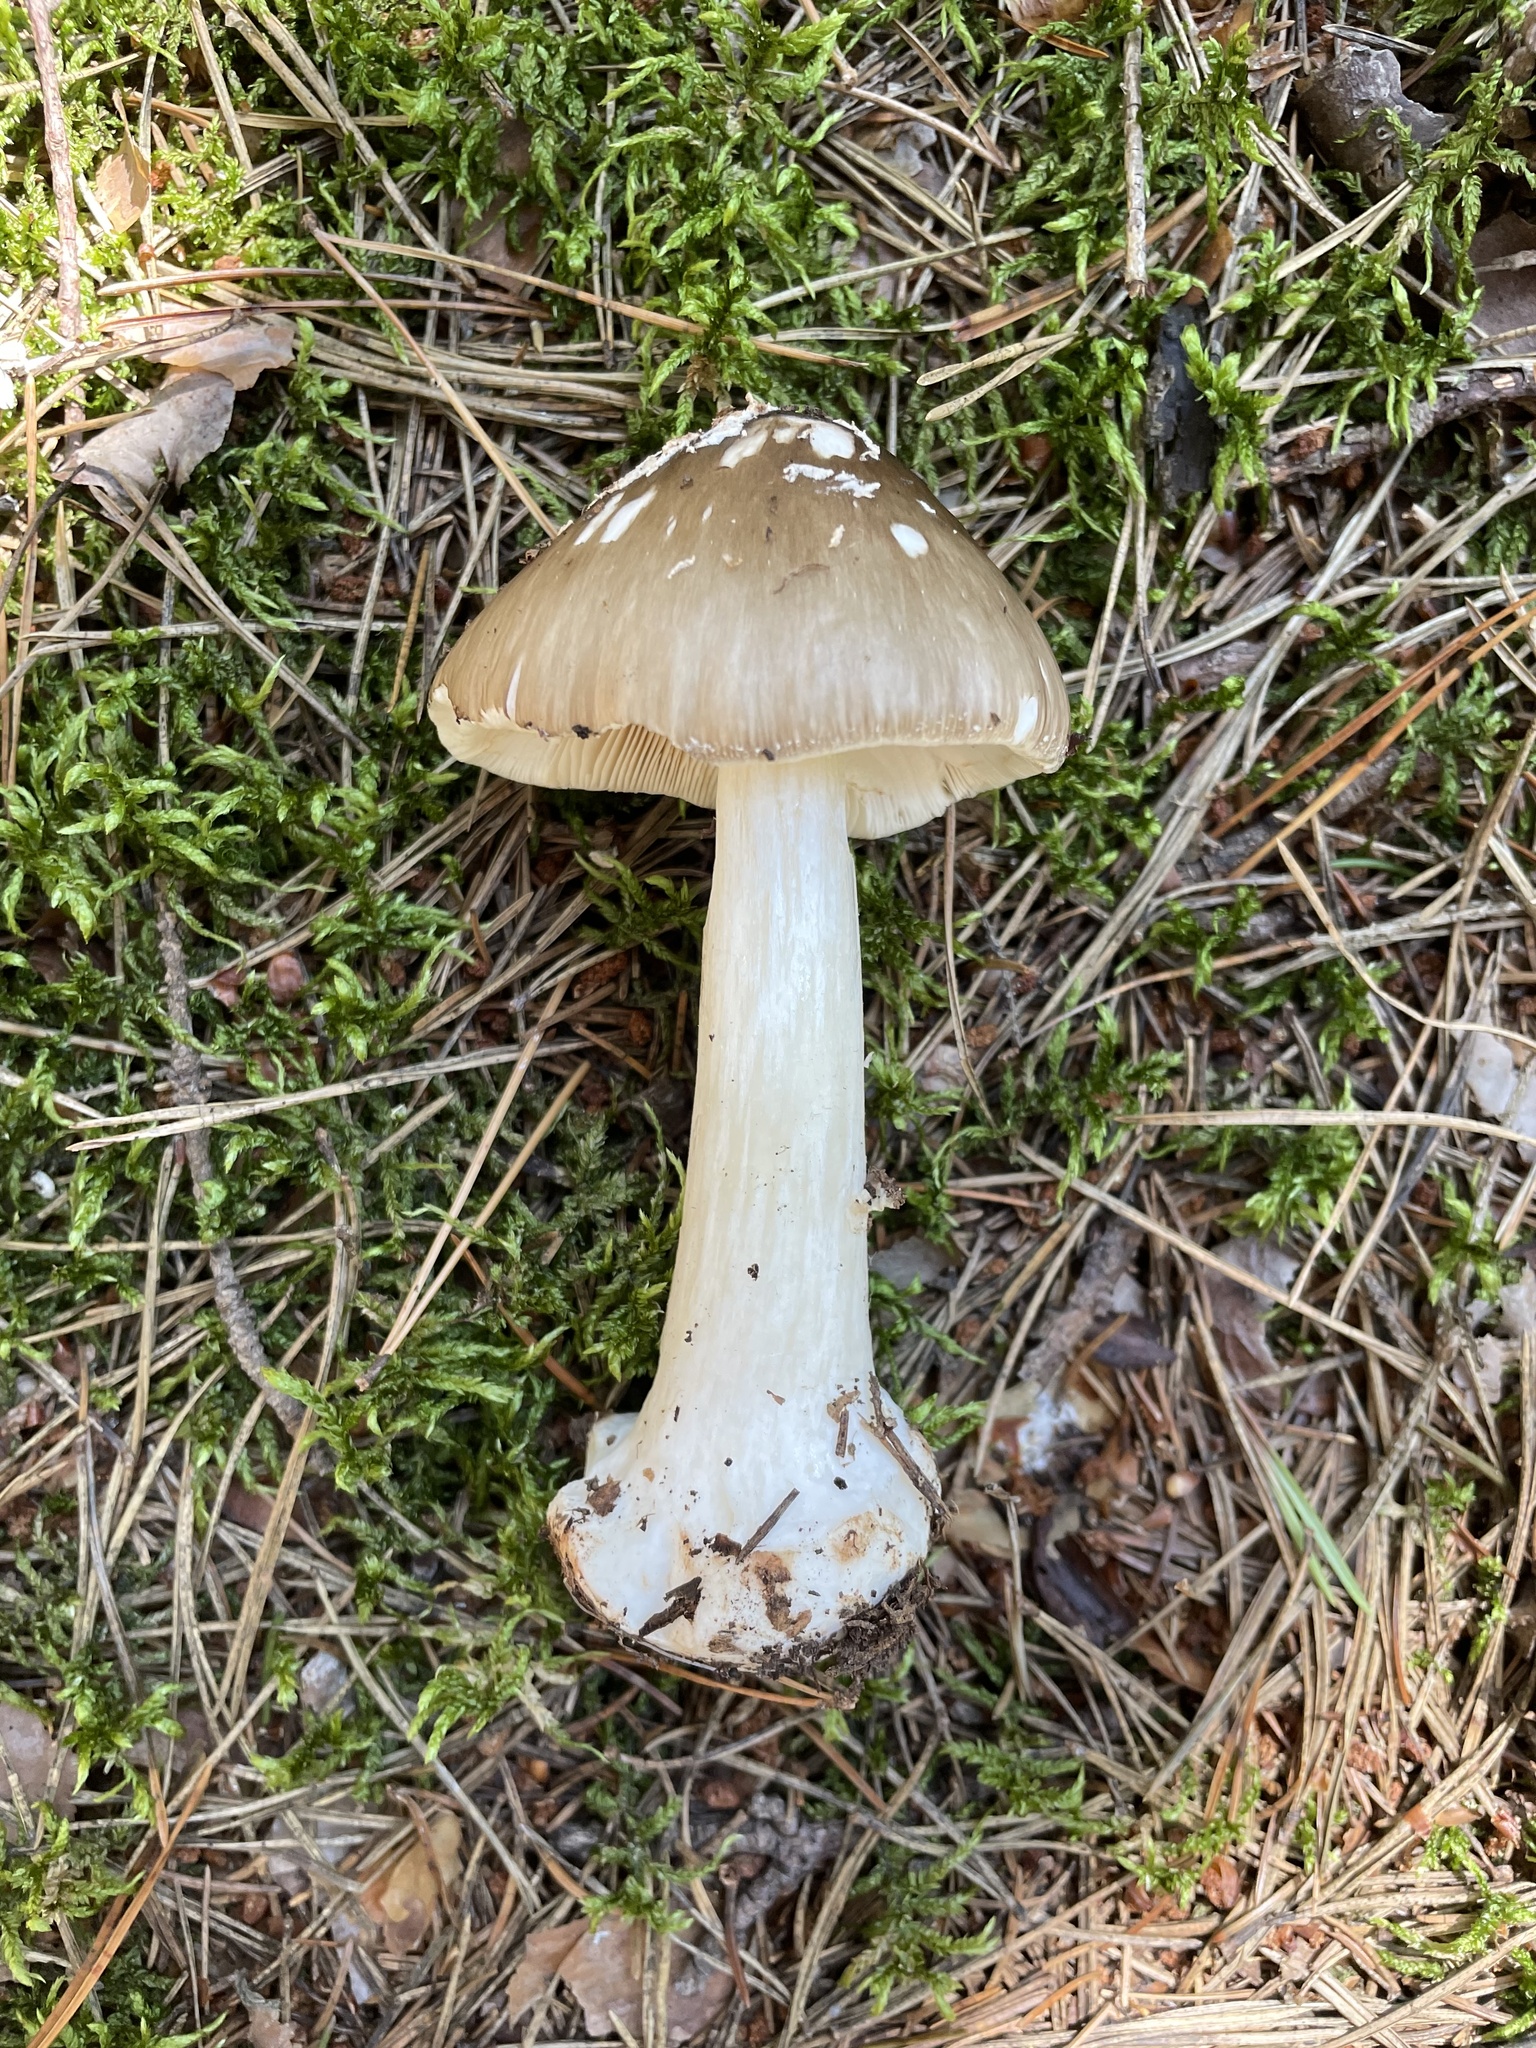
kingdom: Fungi
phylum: Basidiomycota
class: Agaricomycetes
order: Agaricales
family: Amanitaceae
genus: Amanita
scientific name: Amanita brunnescens
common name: Brown american star-footed amanita
